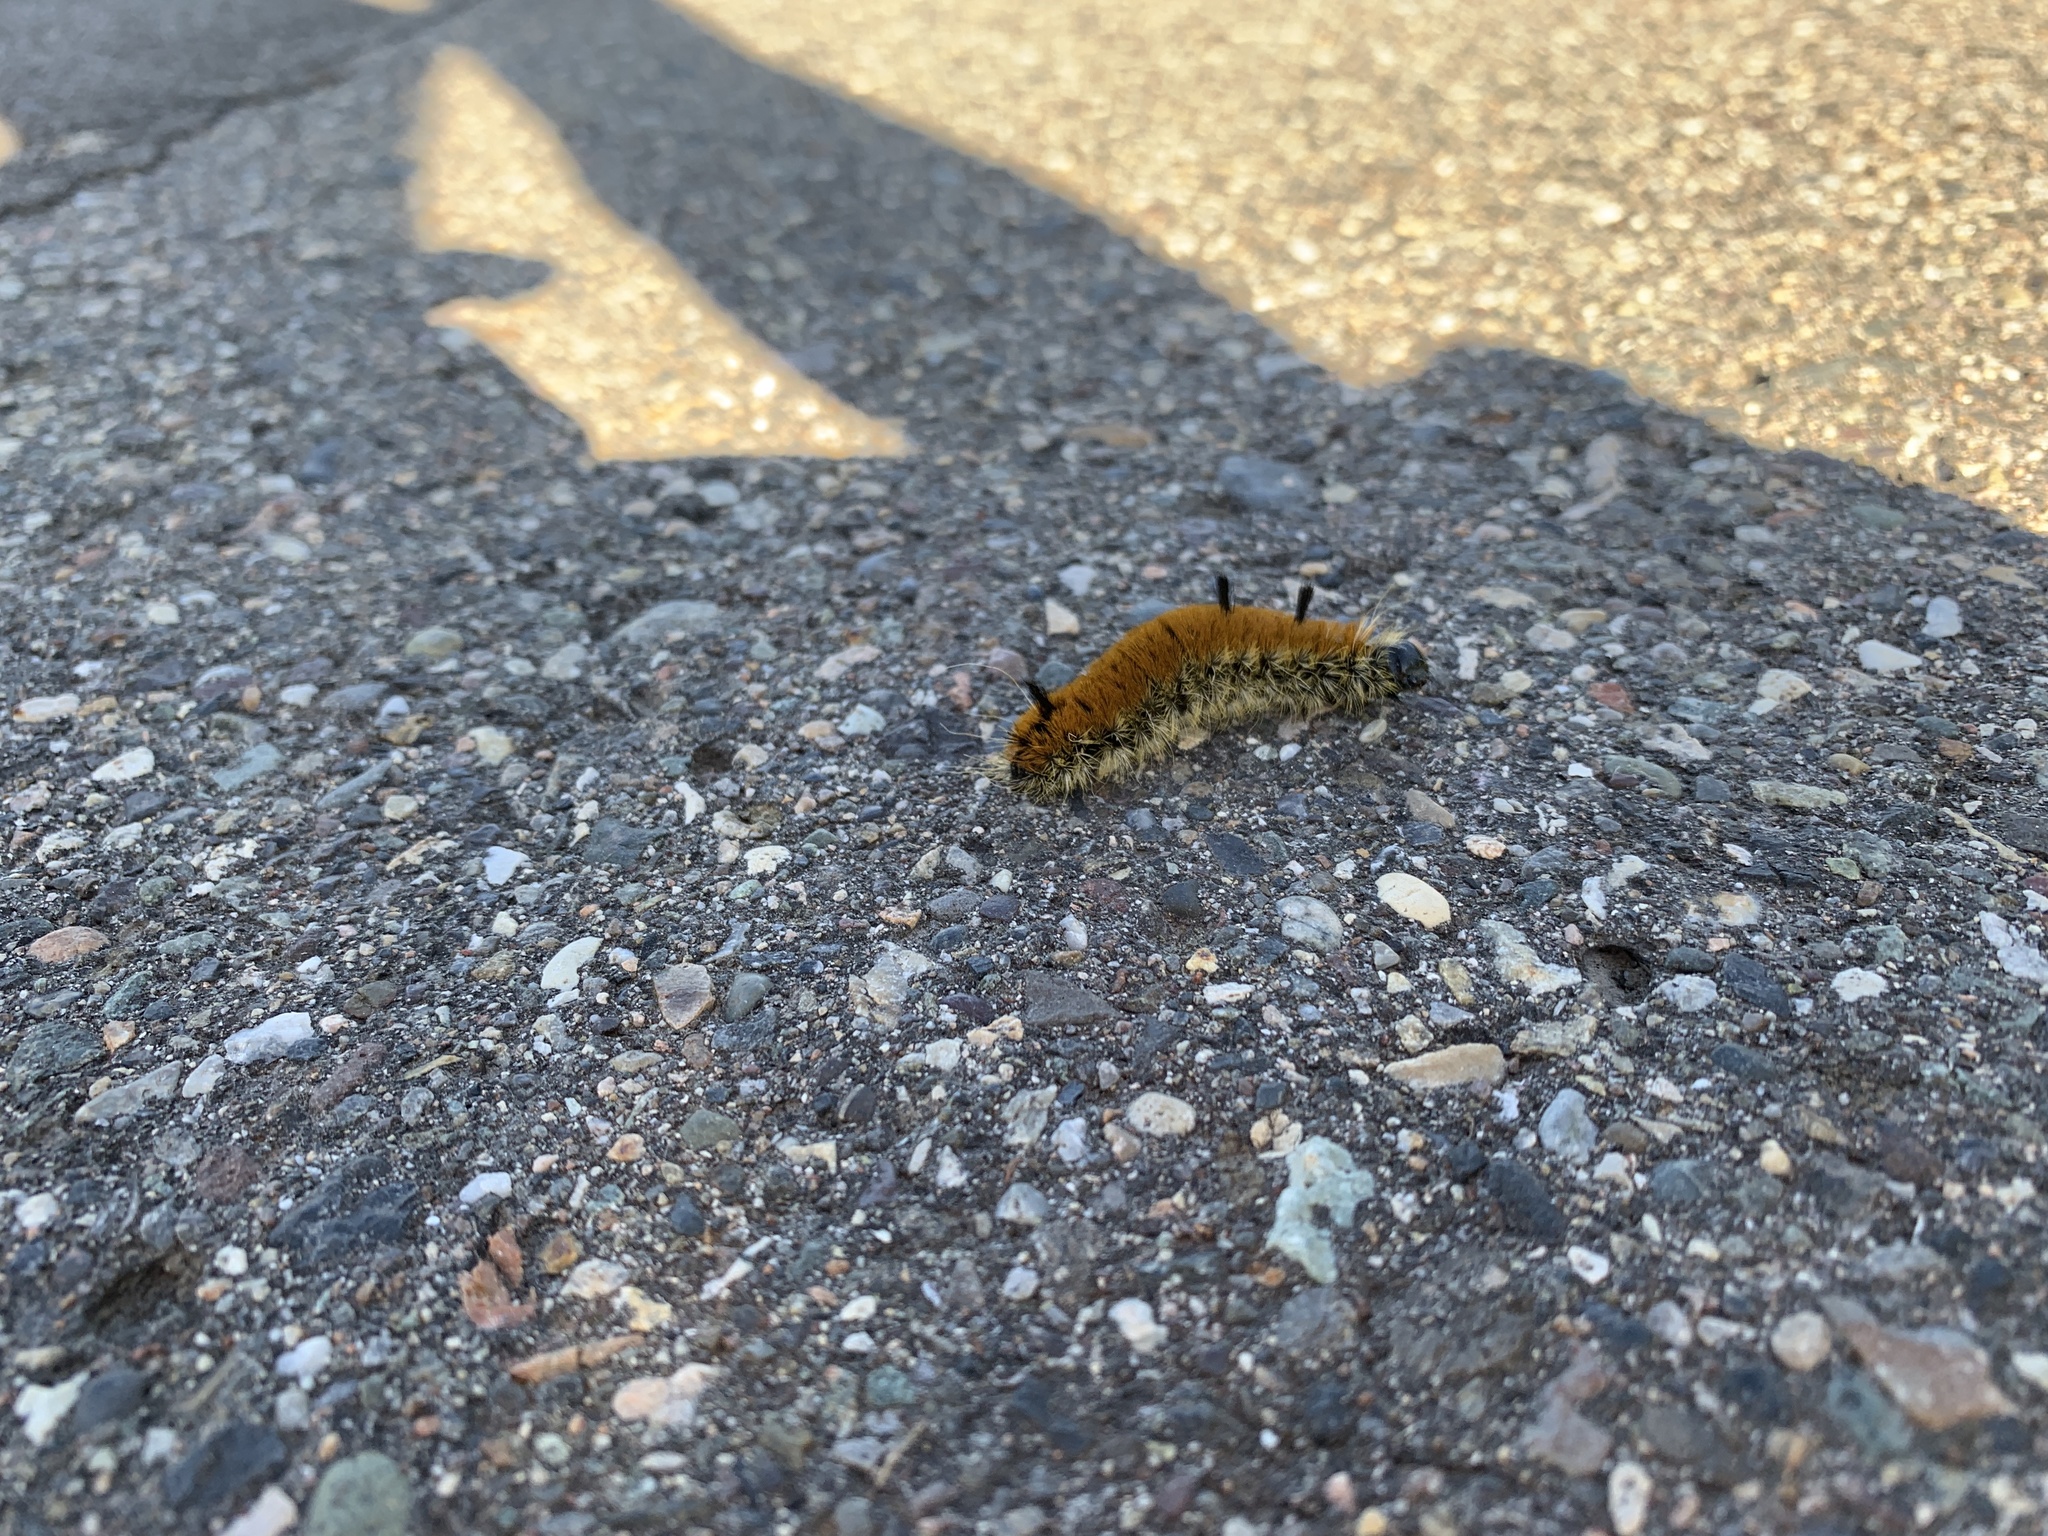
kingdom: Animalia
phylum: Arthropoda
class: Insecta
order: Lepidoptera
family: Noctuidae
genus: Acronicta
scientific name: Acronicta insita
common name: Large gray dagger
